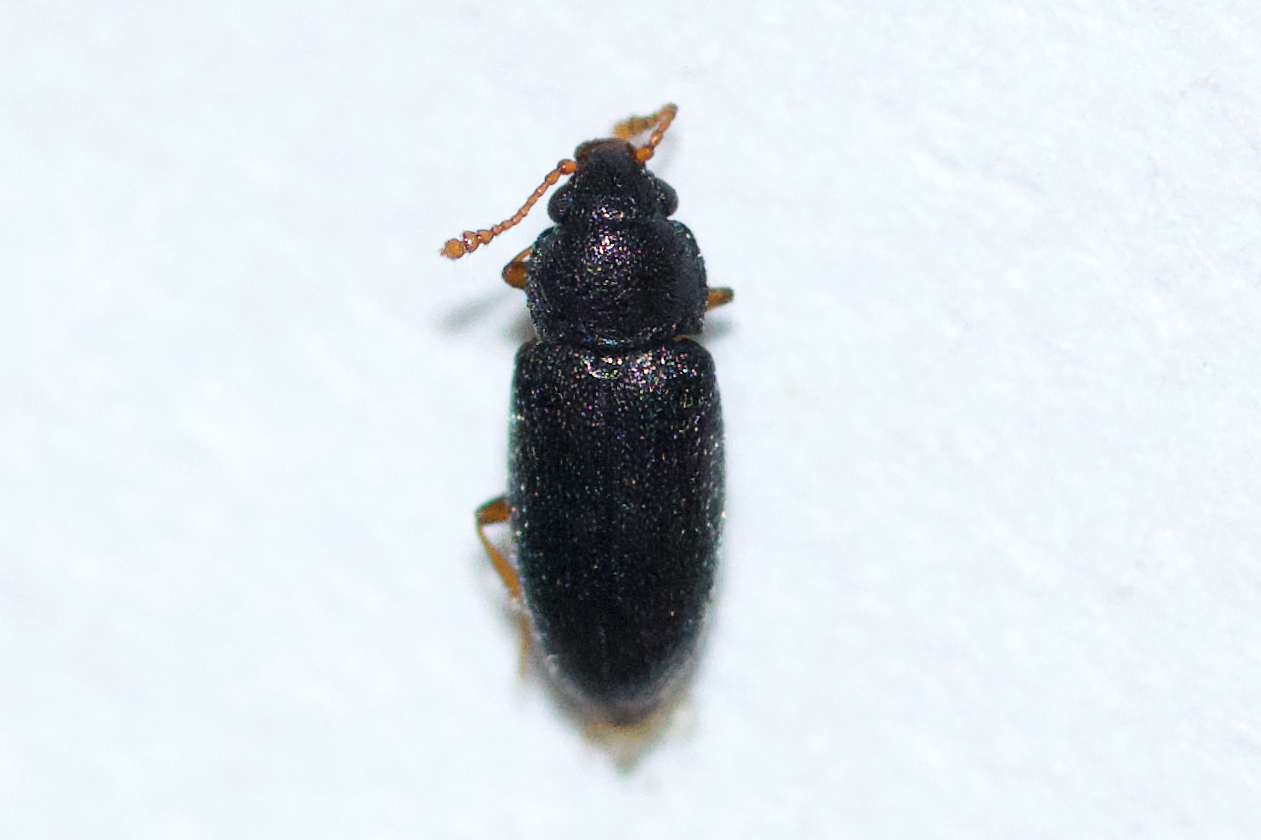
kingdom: Animalia
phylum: Arthropoda
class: Insecta
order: Coleoptera
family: Cryptophagidae
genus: Telmatophilus
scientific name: Telmatophilus typhae
